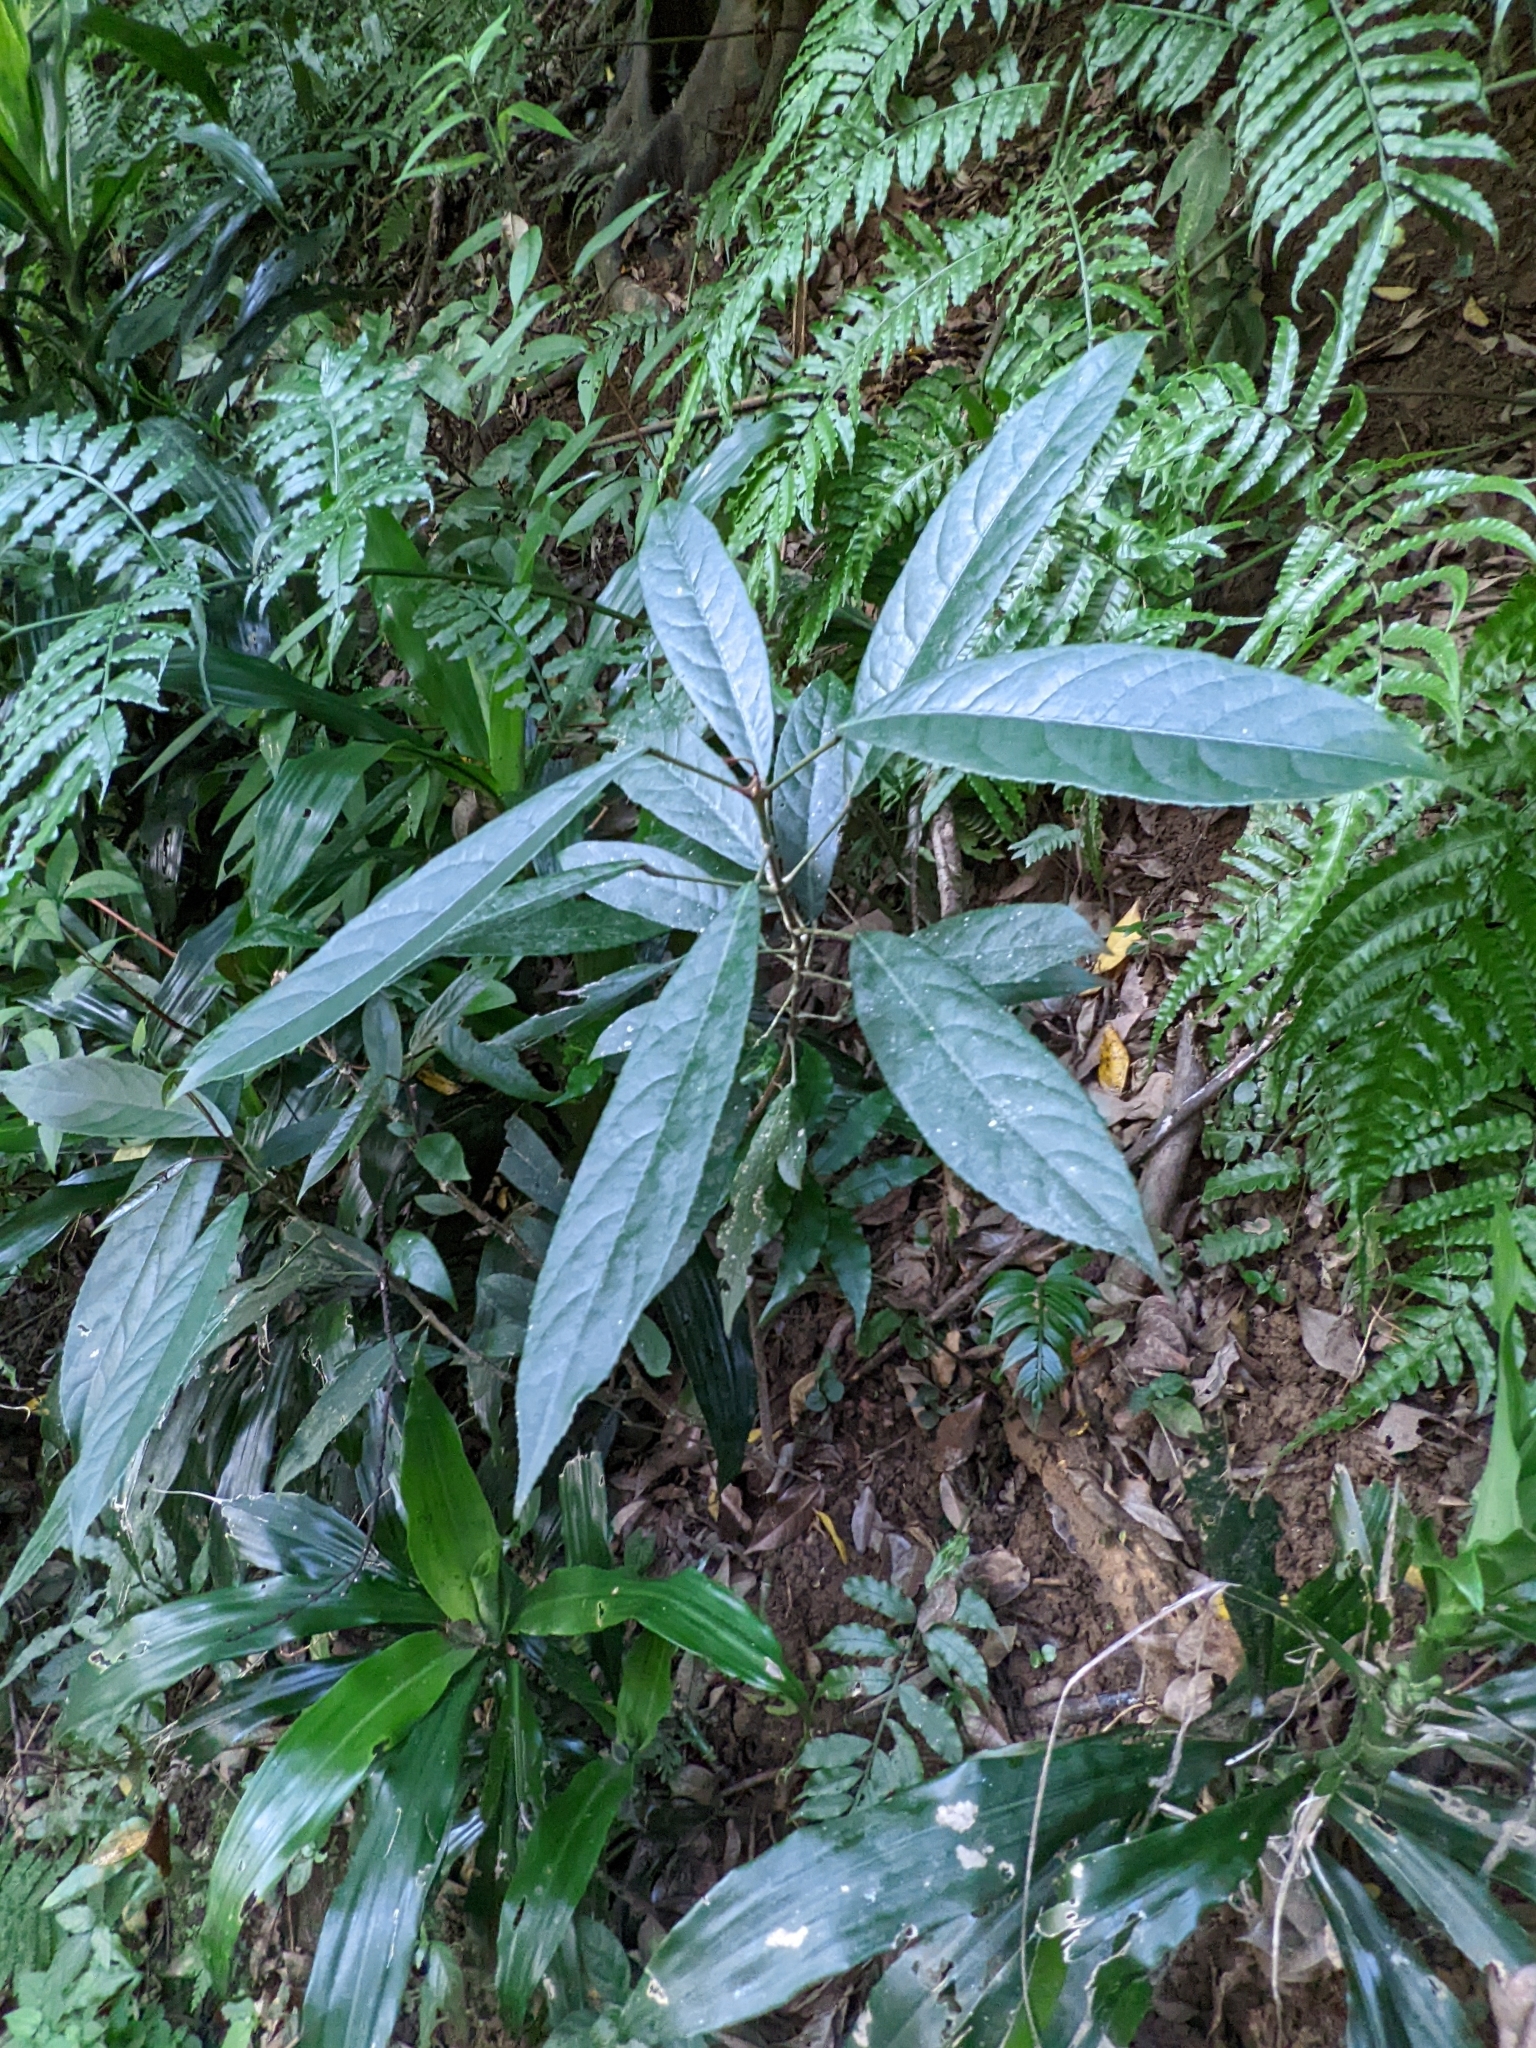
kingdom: Plantae
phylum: Tracheophyta
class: Magnoliopsida
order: Crossosomatales
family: Staphyleaceae
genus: Turpinia
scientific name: Turpinia formosana
